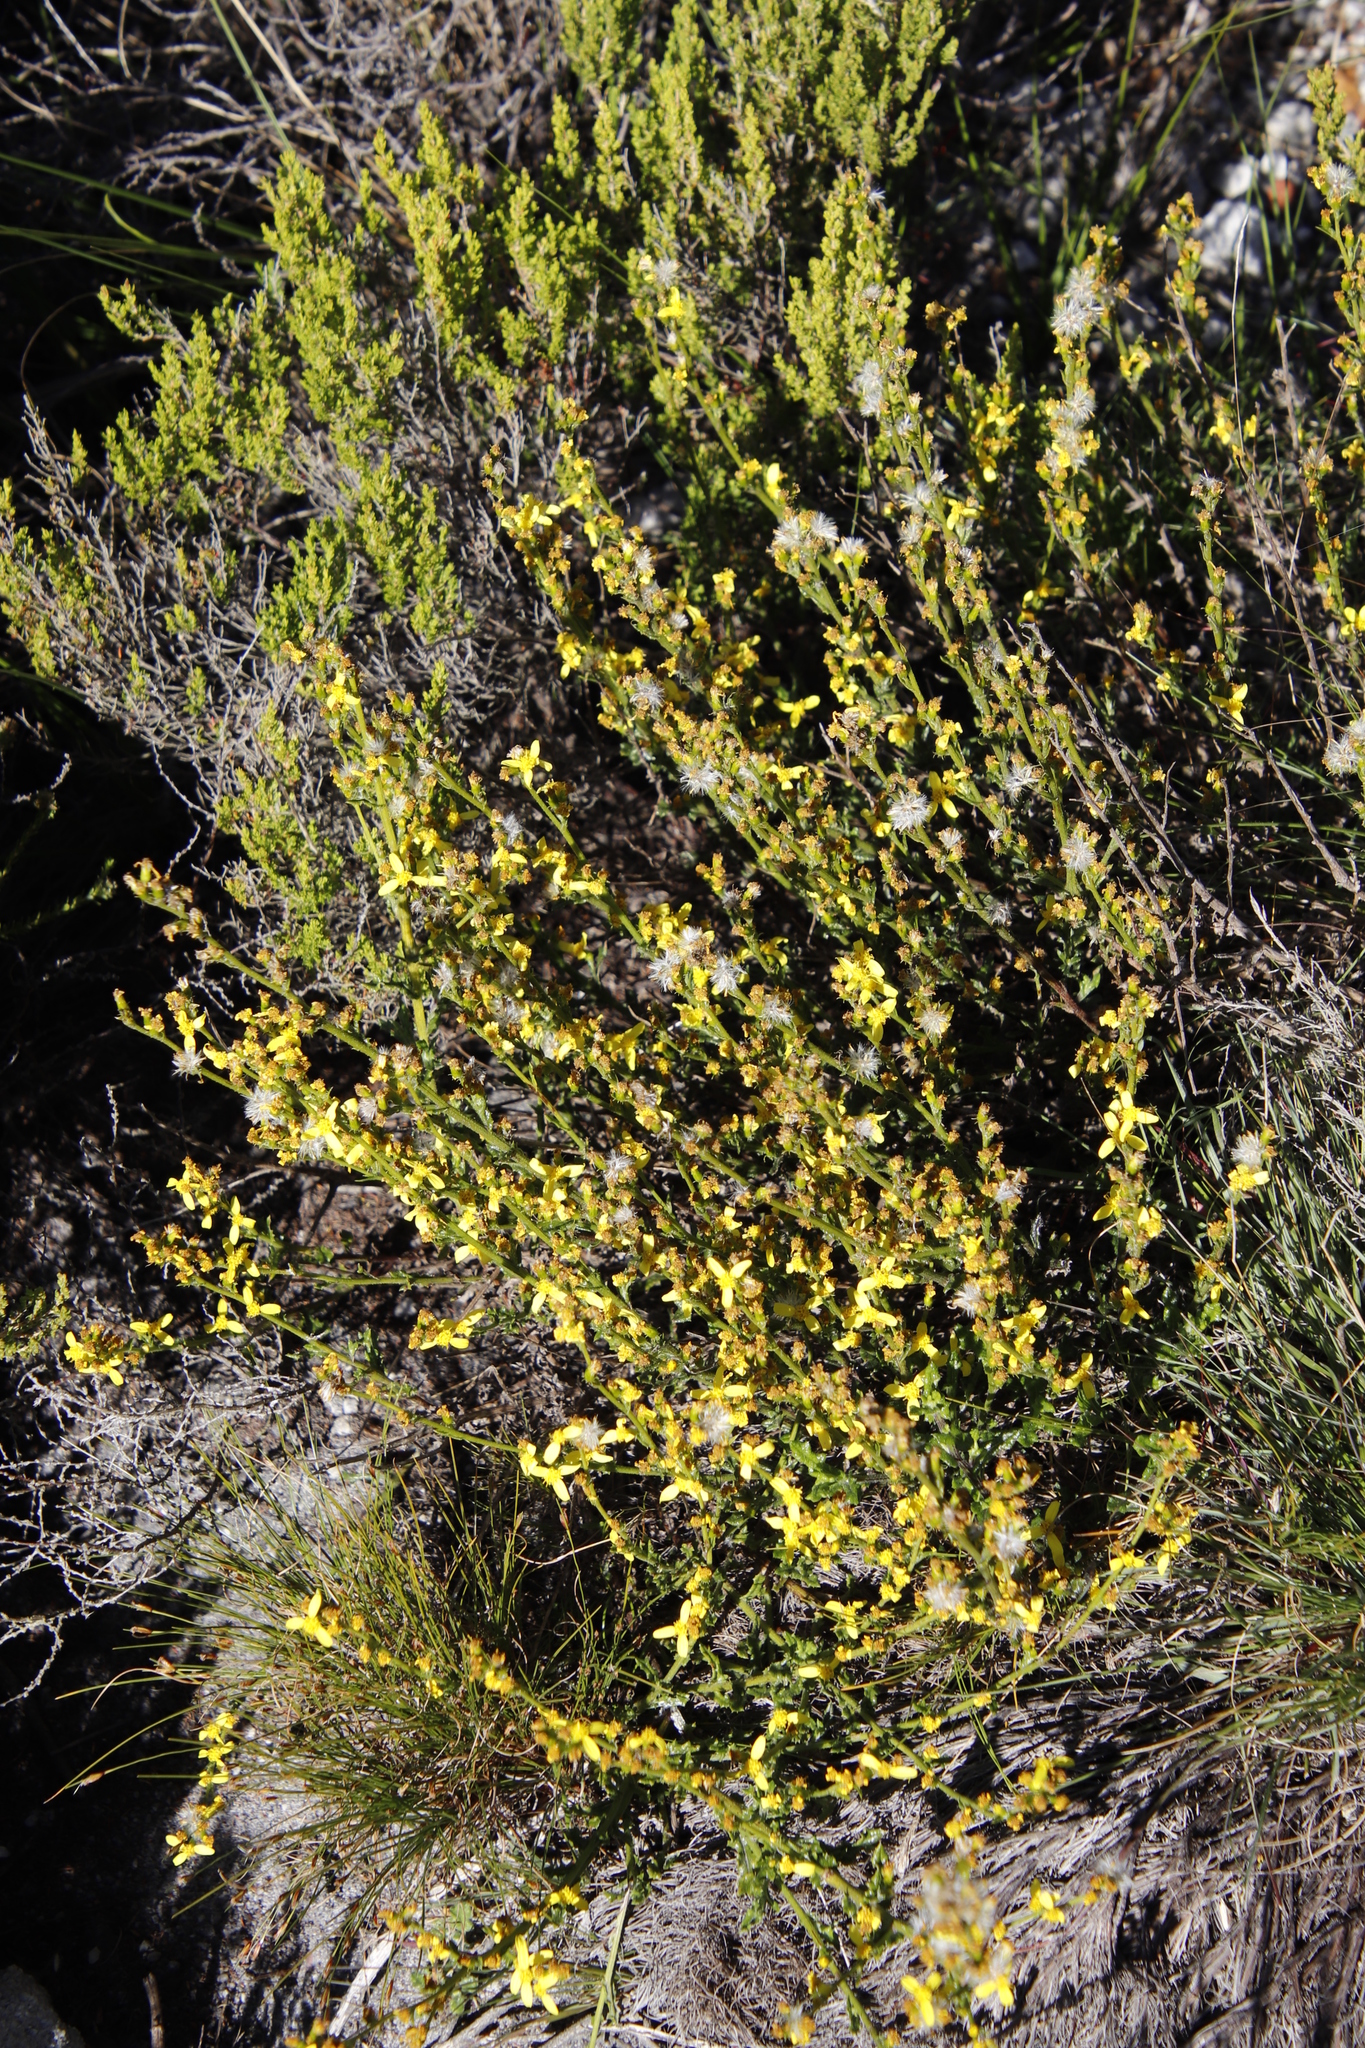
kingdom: Plantae
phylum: Tracheophyta
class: Magnoliopsida
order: Asterales
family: Asteraceae
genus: Senecio
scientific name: Senecio pubigerus
